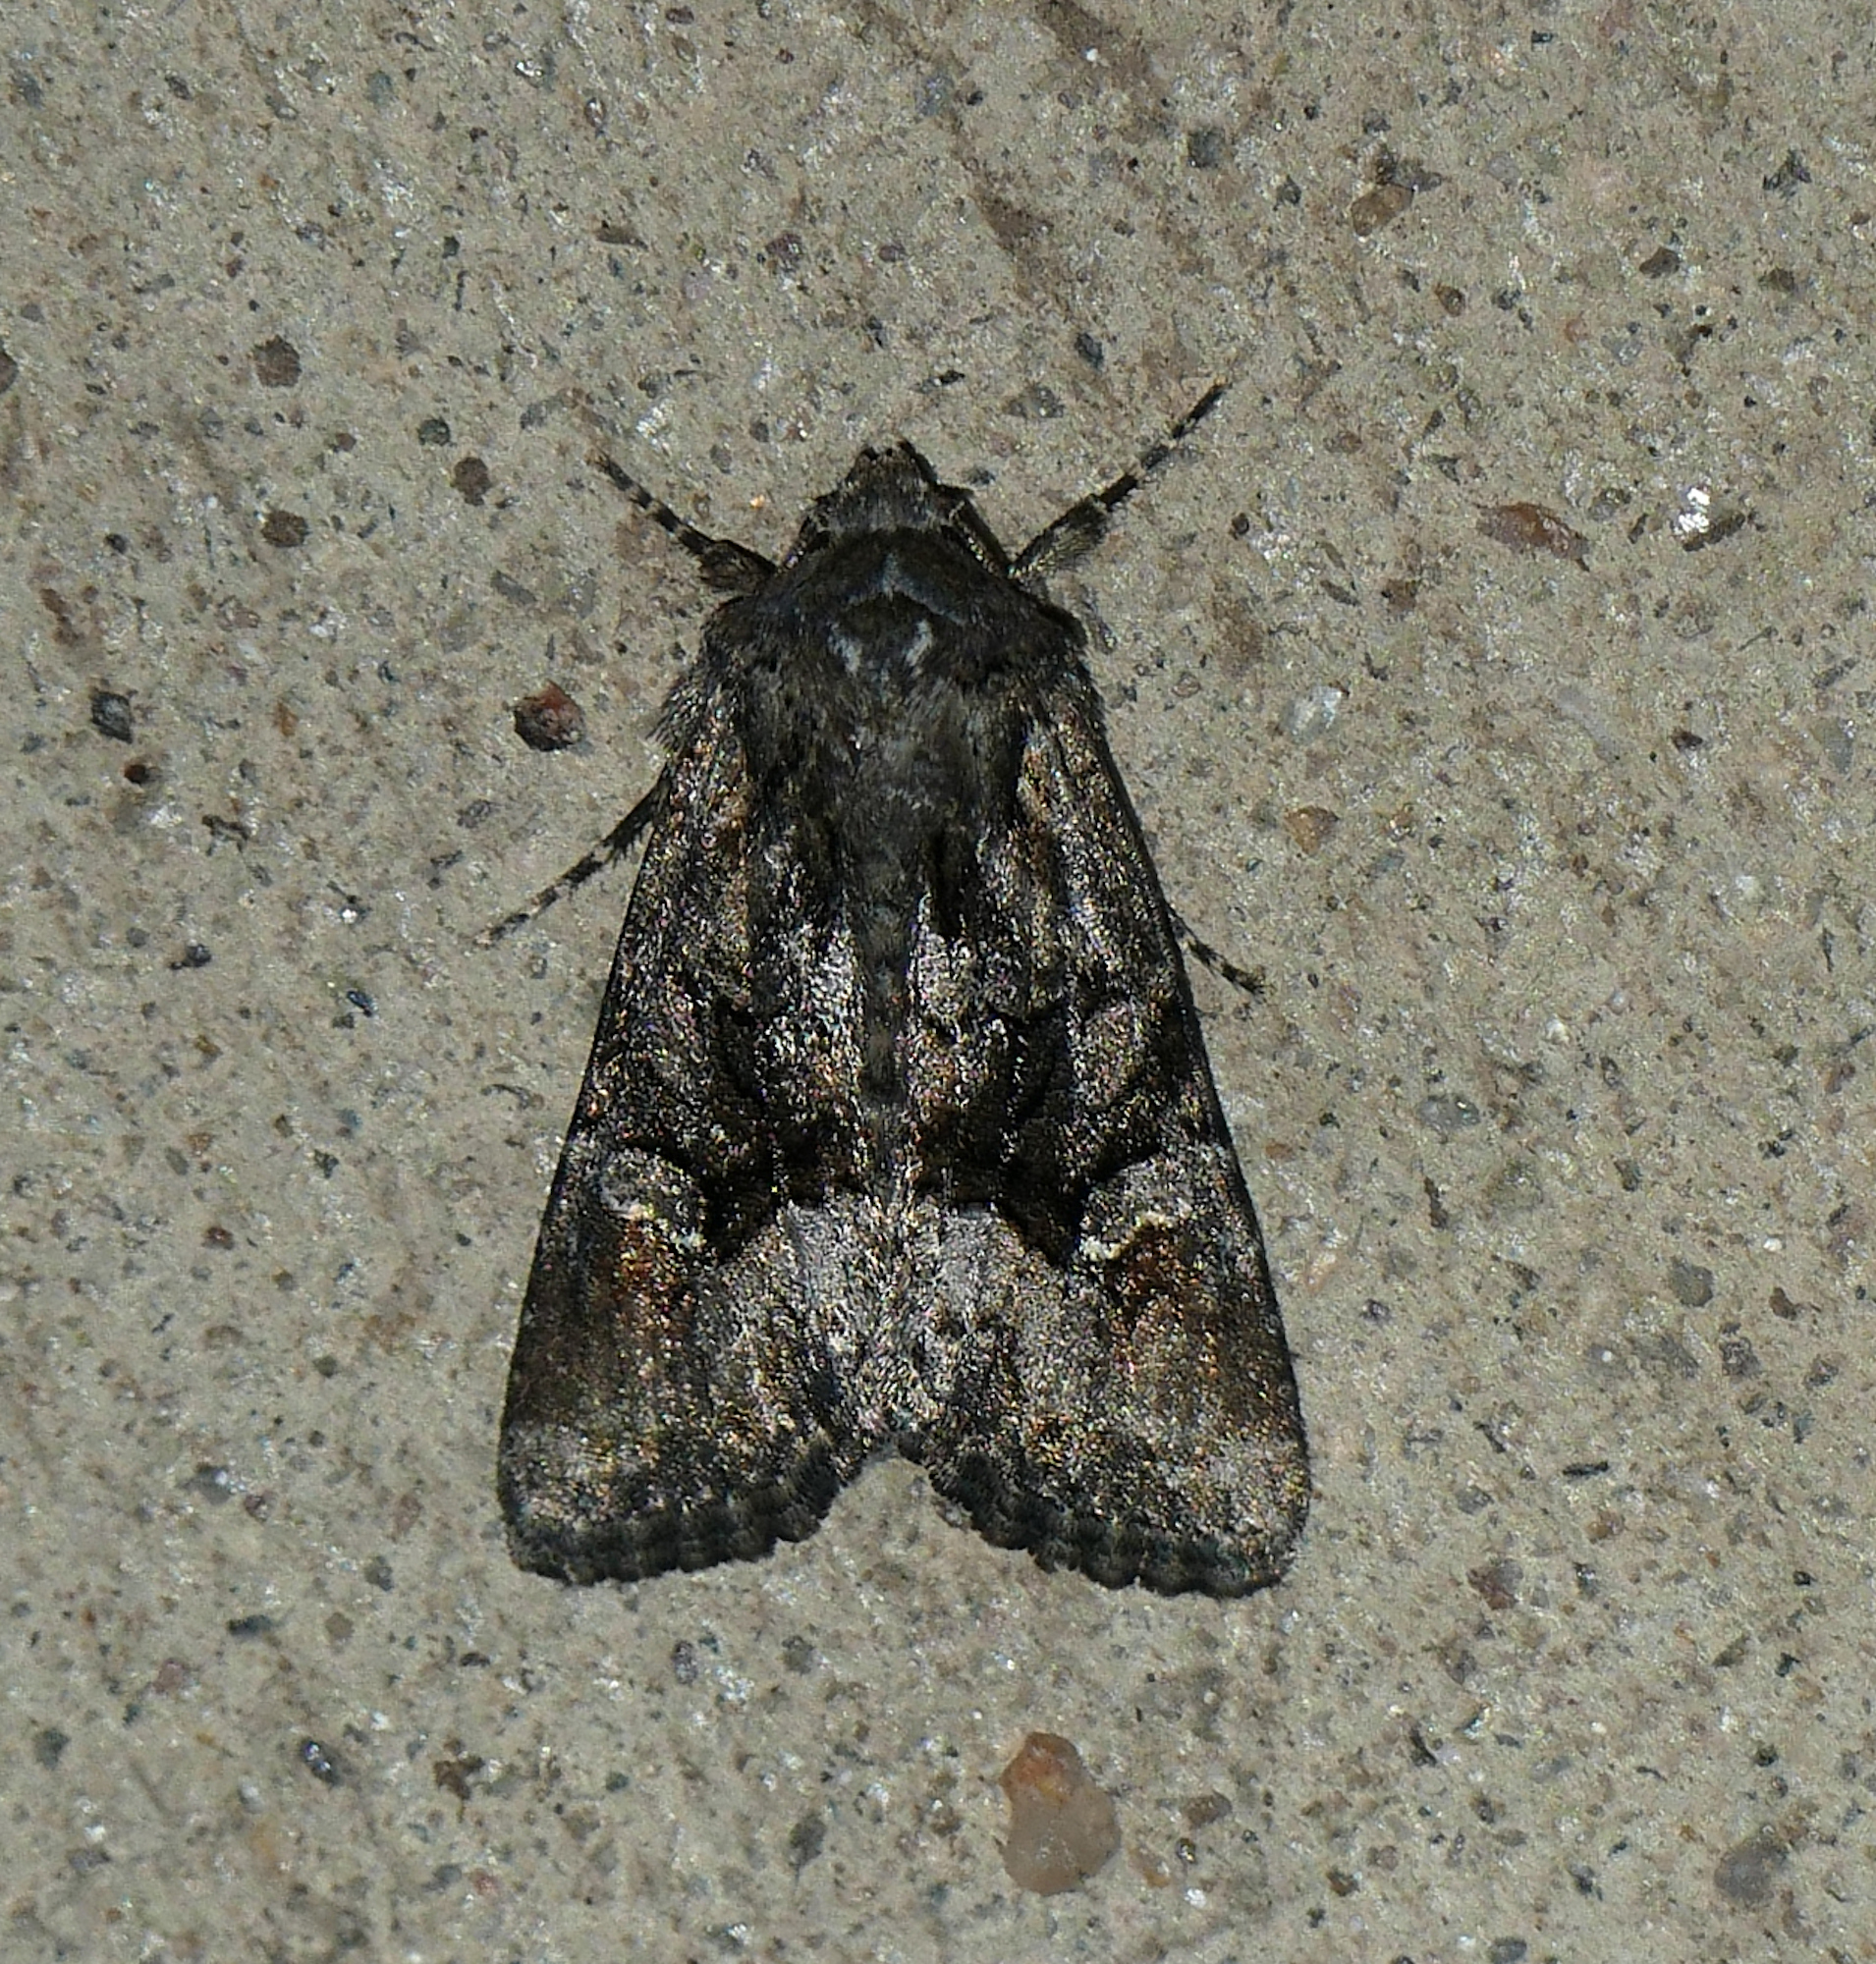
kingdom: Animalia
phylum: Arthropoda
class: Insecta
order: Lepidoptera
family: Noctuidae
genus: Apamea
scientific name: Apamea burgessi
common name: Burgess' apamea moth
